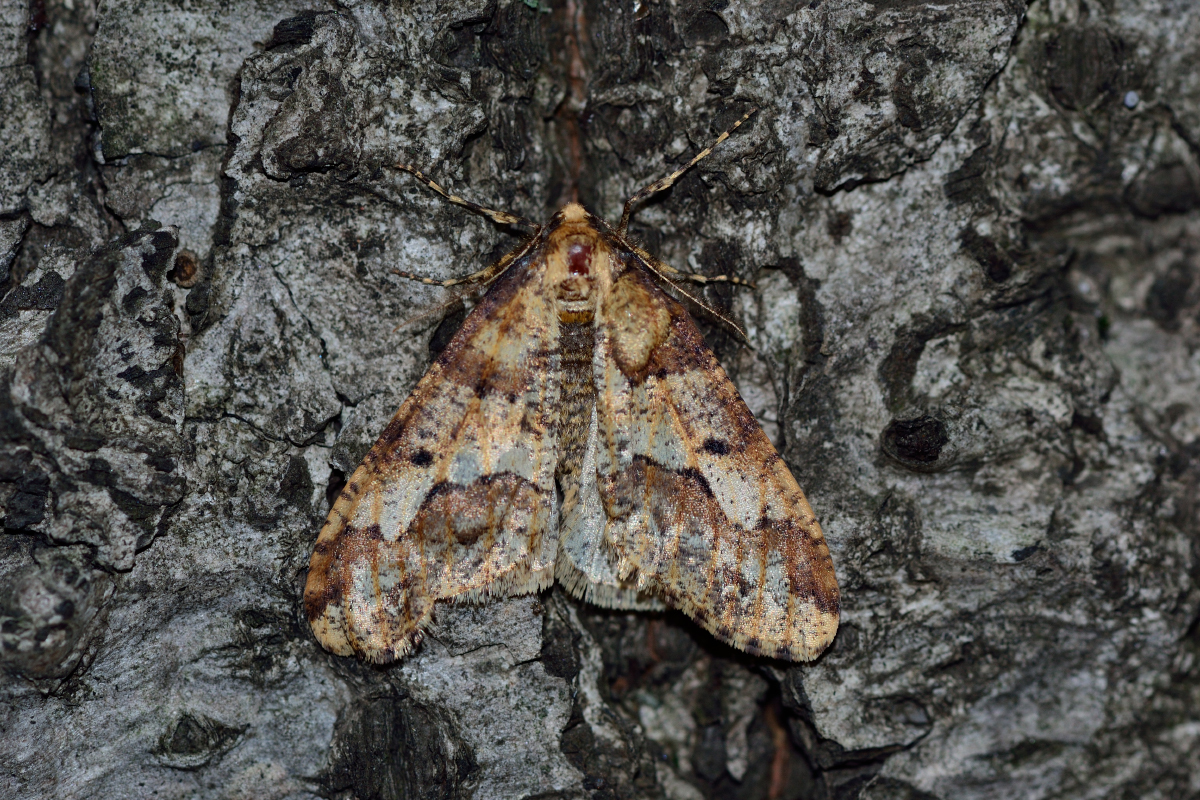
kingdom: Animalia
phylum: Arthropoda
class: Insecta
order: Lepidoptera
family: Geometridae
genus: Erannis
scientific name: Erannis defoliaria
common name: Mottled umber
